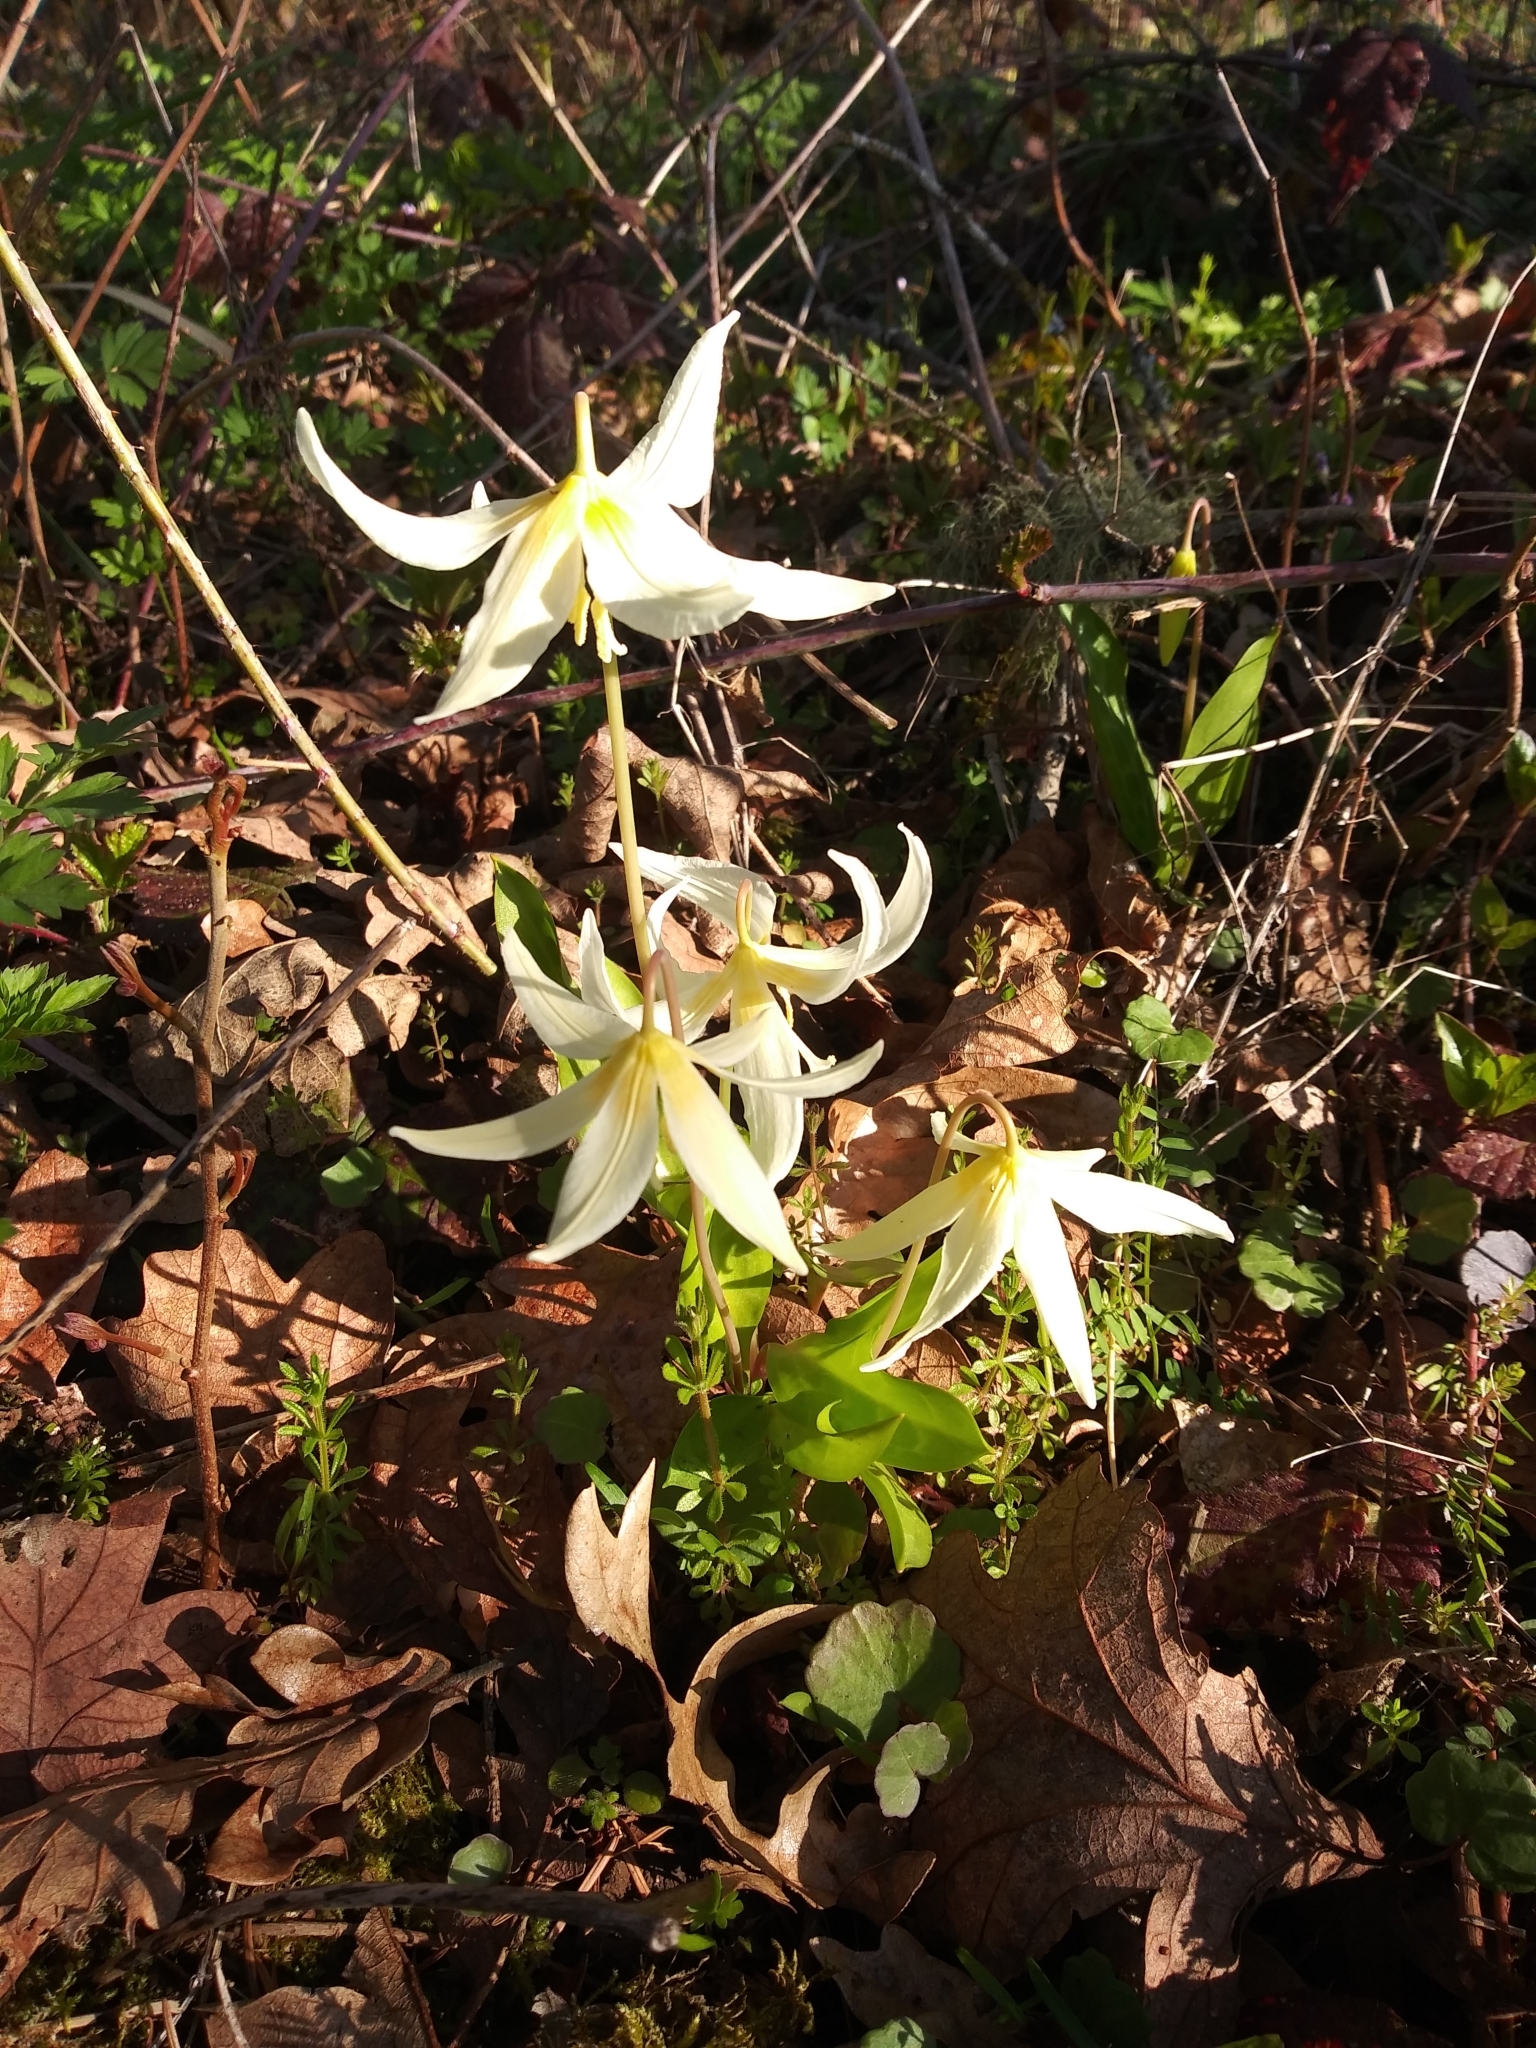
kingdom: Plantae
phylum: Tracheophyta
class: Liliopsida
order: Liliales
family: Liliaceae
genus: Erythronium
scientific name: Erythronium oregonum
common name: Giant adder's-tongue
